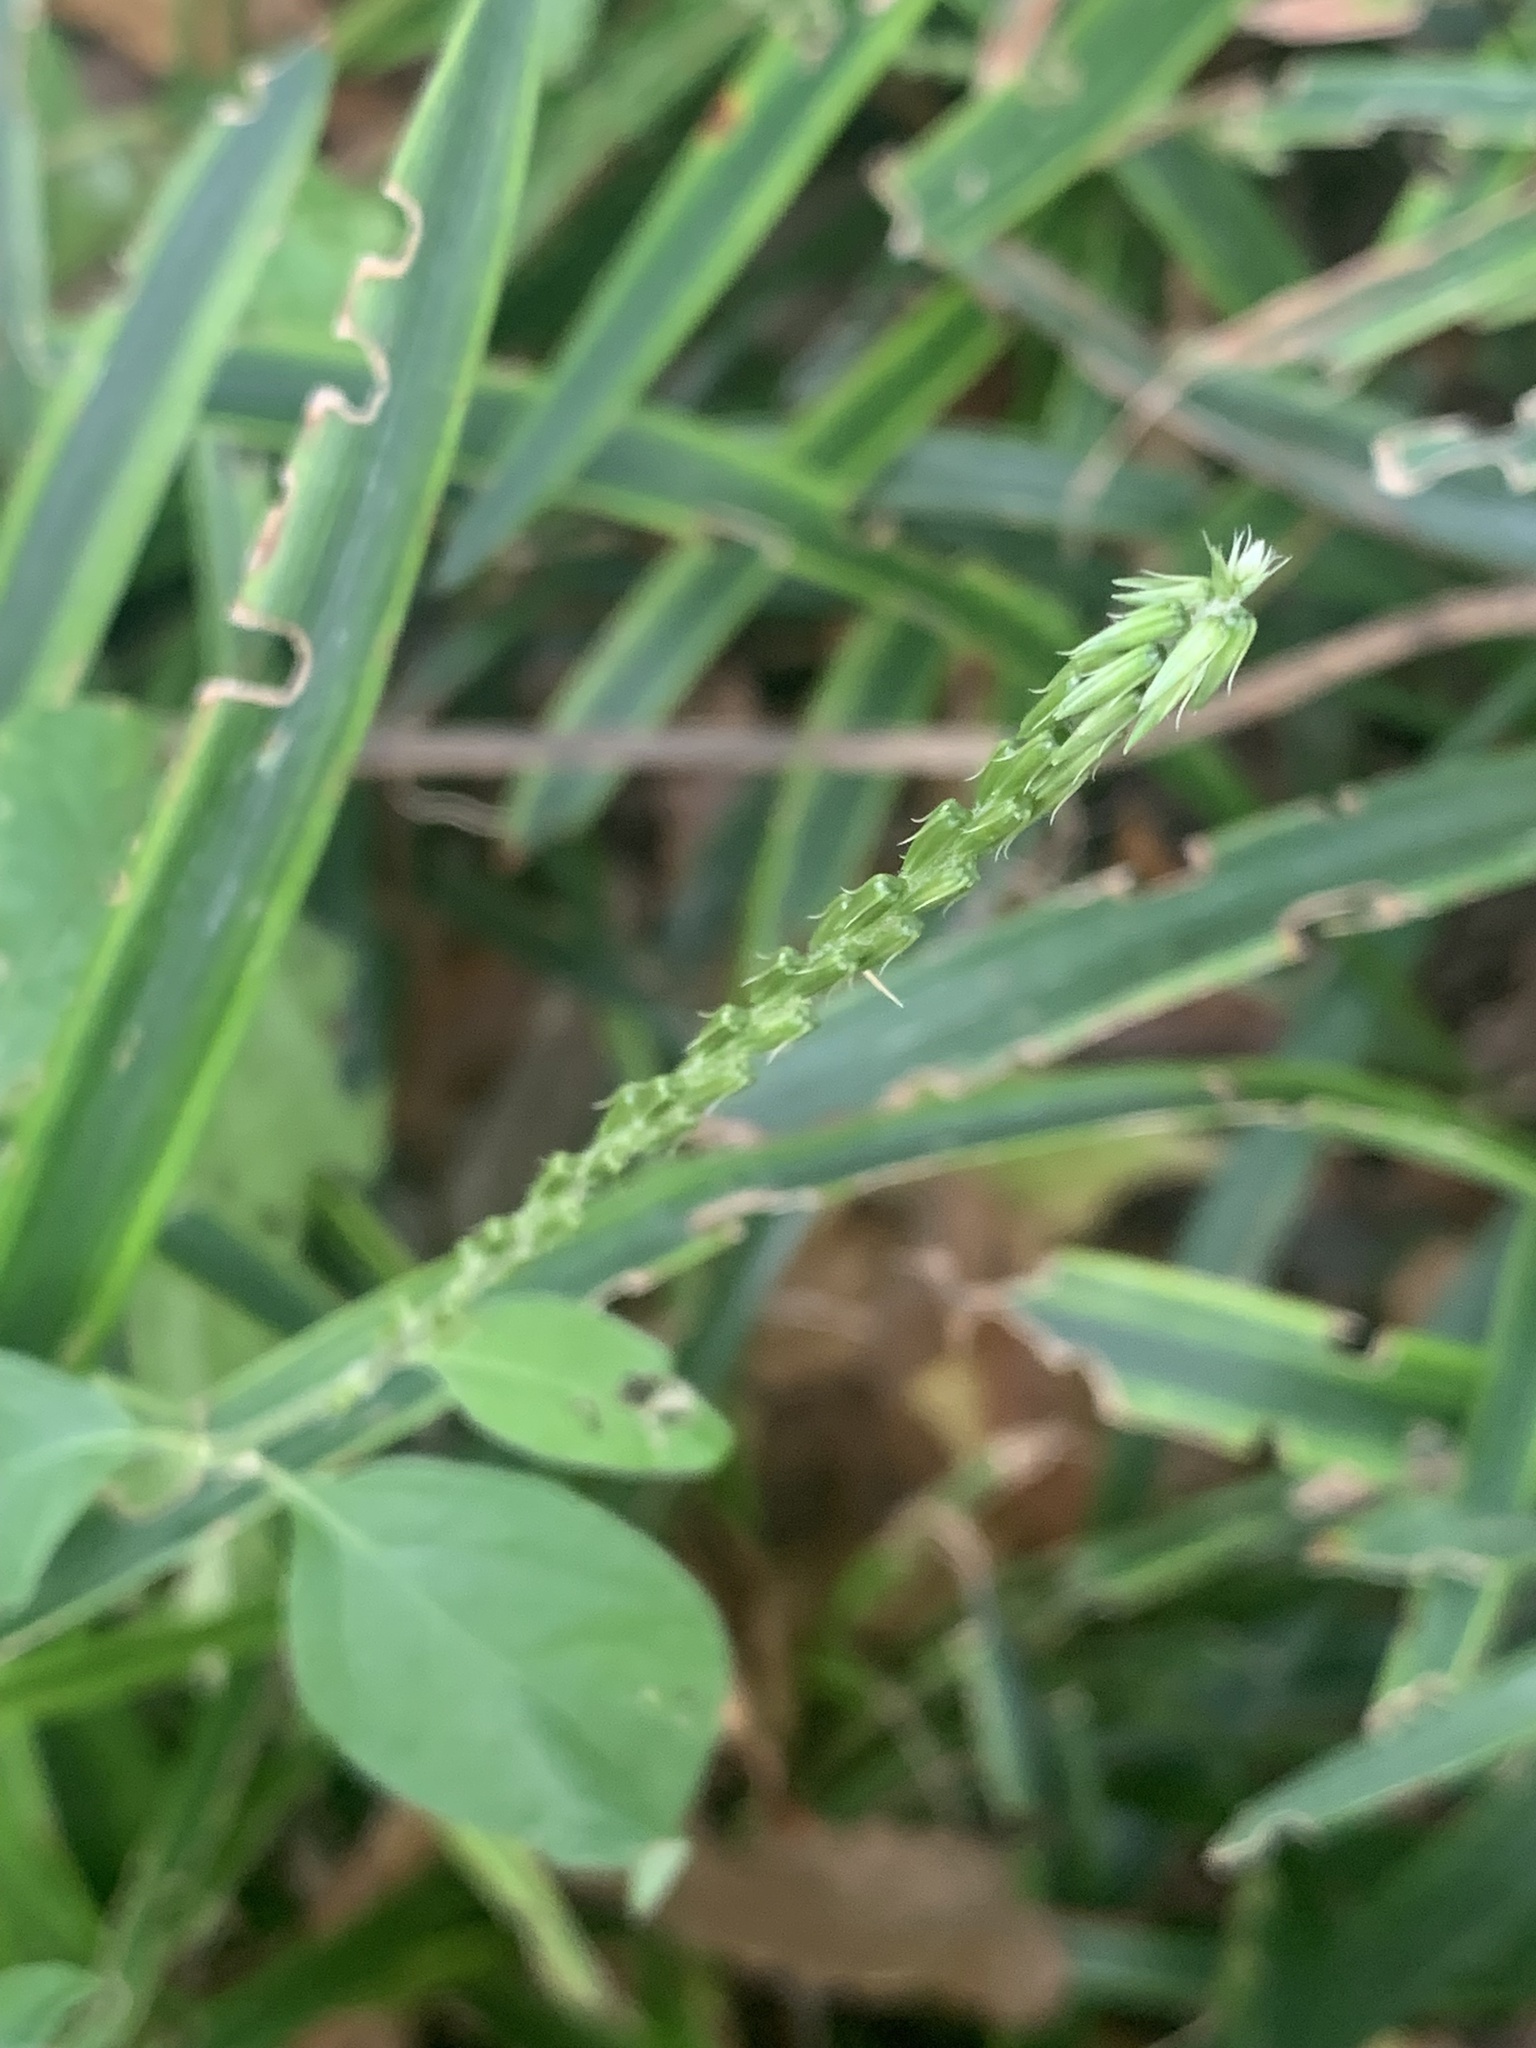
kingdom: Plantae
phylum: Tracheophyta
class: Magnoliopsida
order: Caryophyllales
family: Amaranthaceae
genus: Achyranthes
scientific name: Achyranthes bidentata
